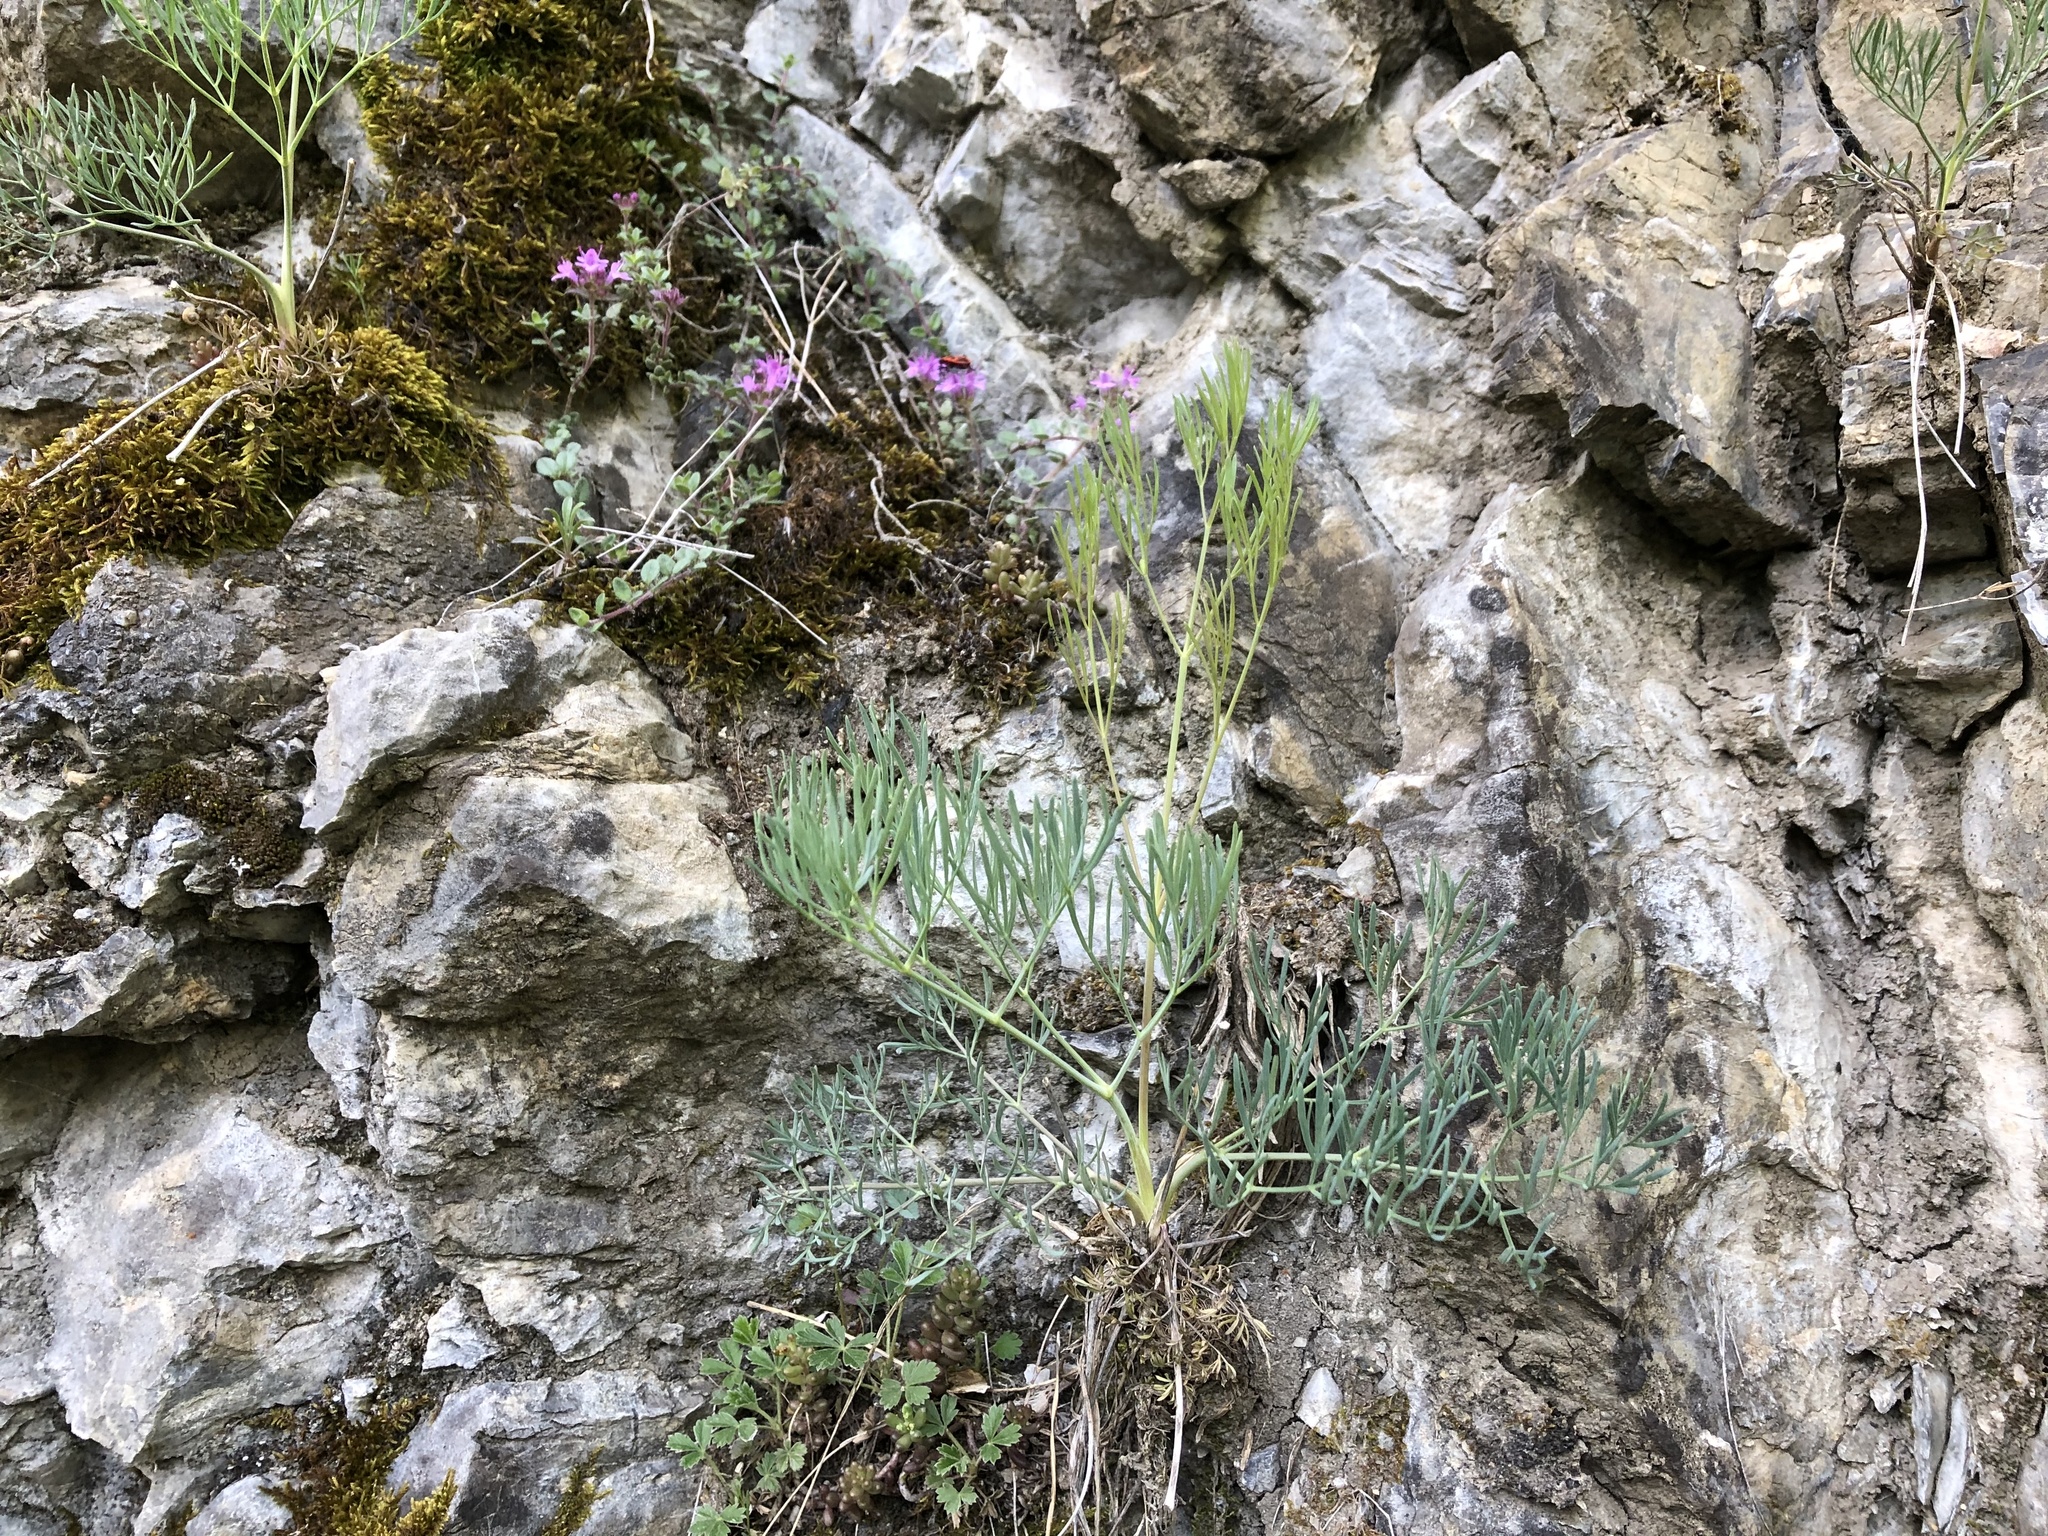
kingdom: Plantae
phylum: Tracheophyta
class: Magnoliopsida
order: Apiales
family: Apiaceae
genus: Seseli
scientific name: Seseli osseum
